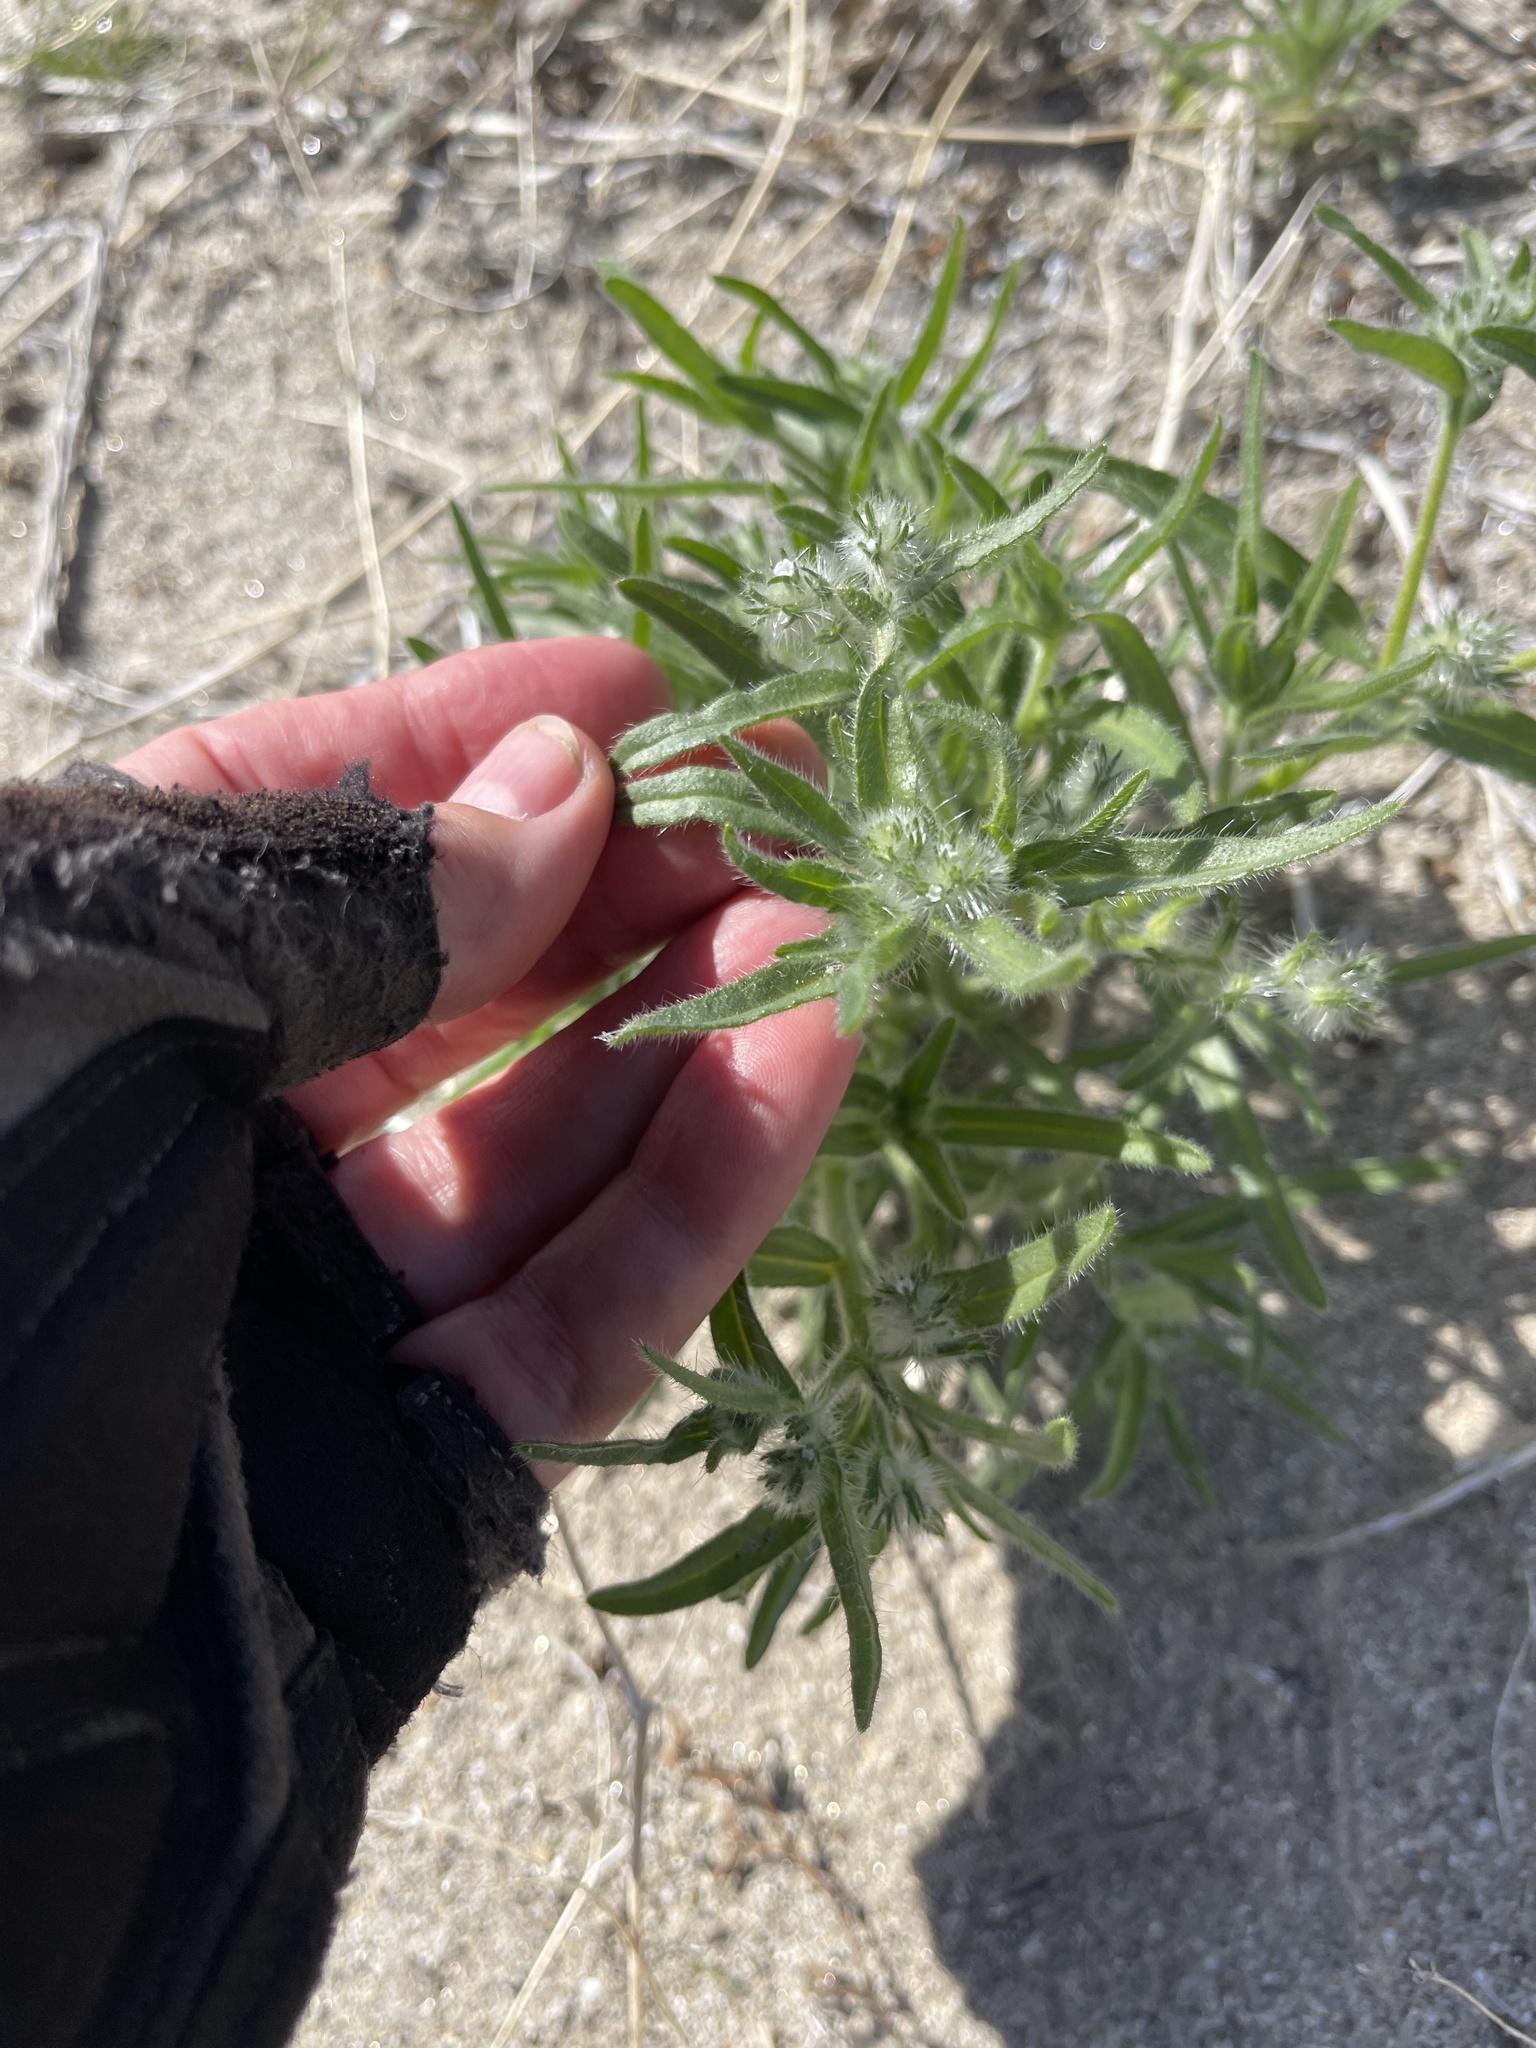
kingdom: Plantae
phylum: Tracheophyta
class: Magnoliopsida
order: Boraginales
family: Boraginaceae
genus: Cryptantha
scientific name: Cryptantha ganderi
